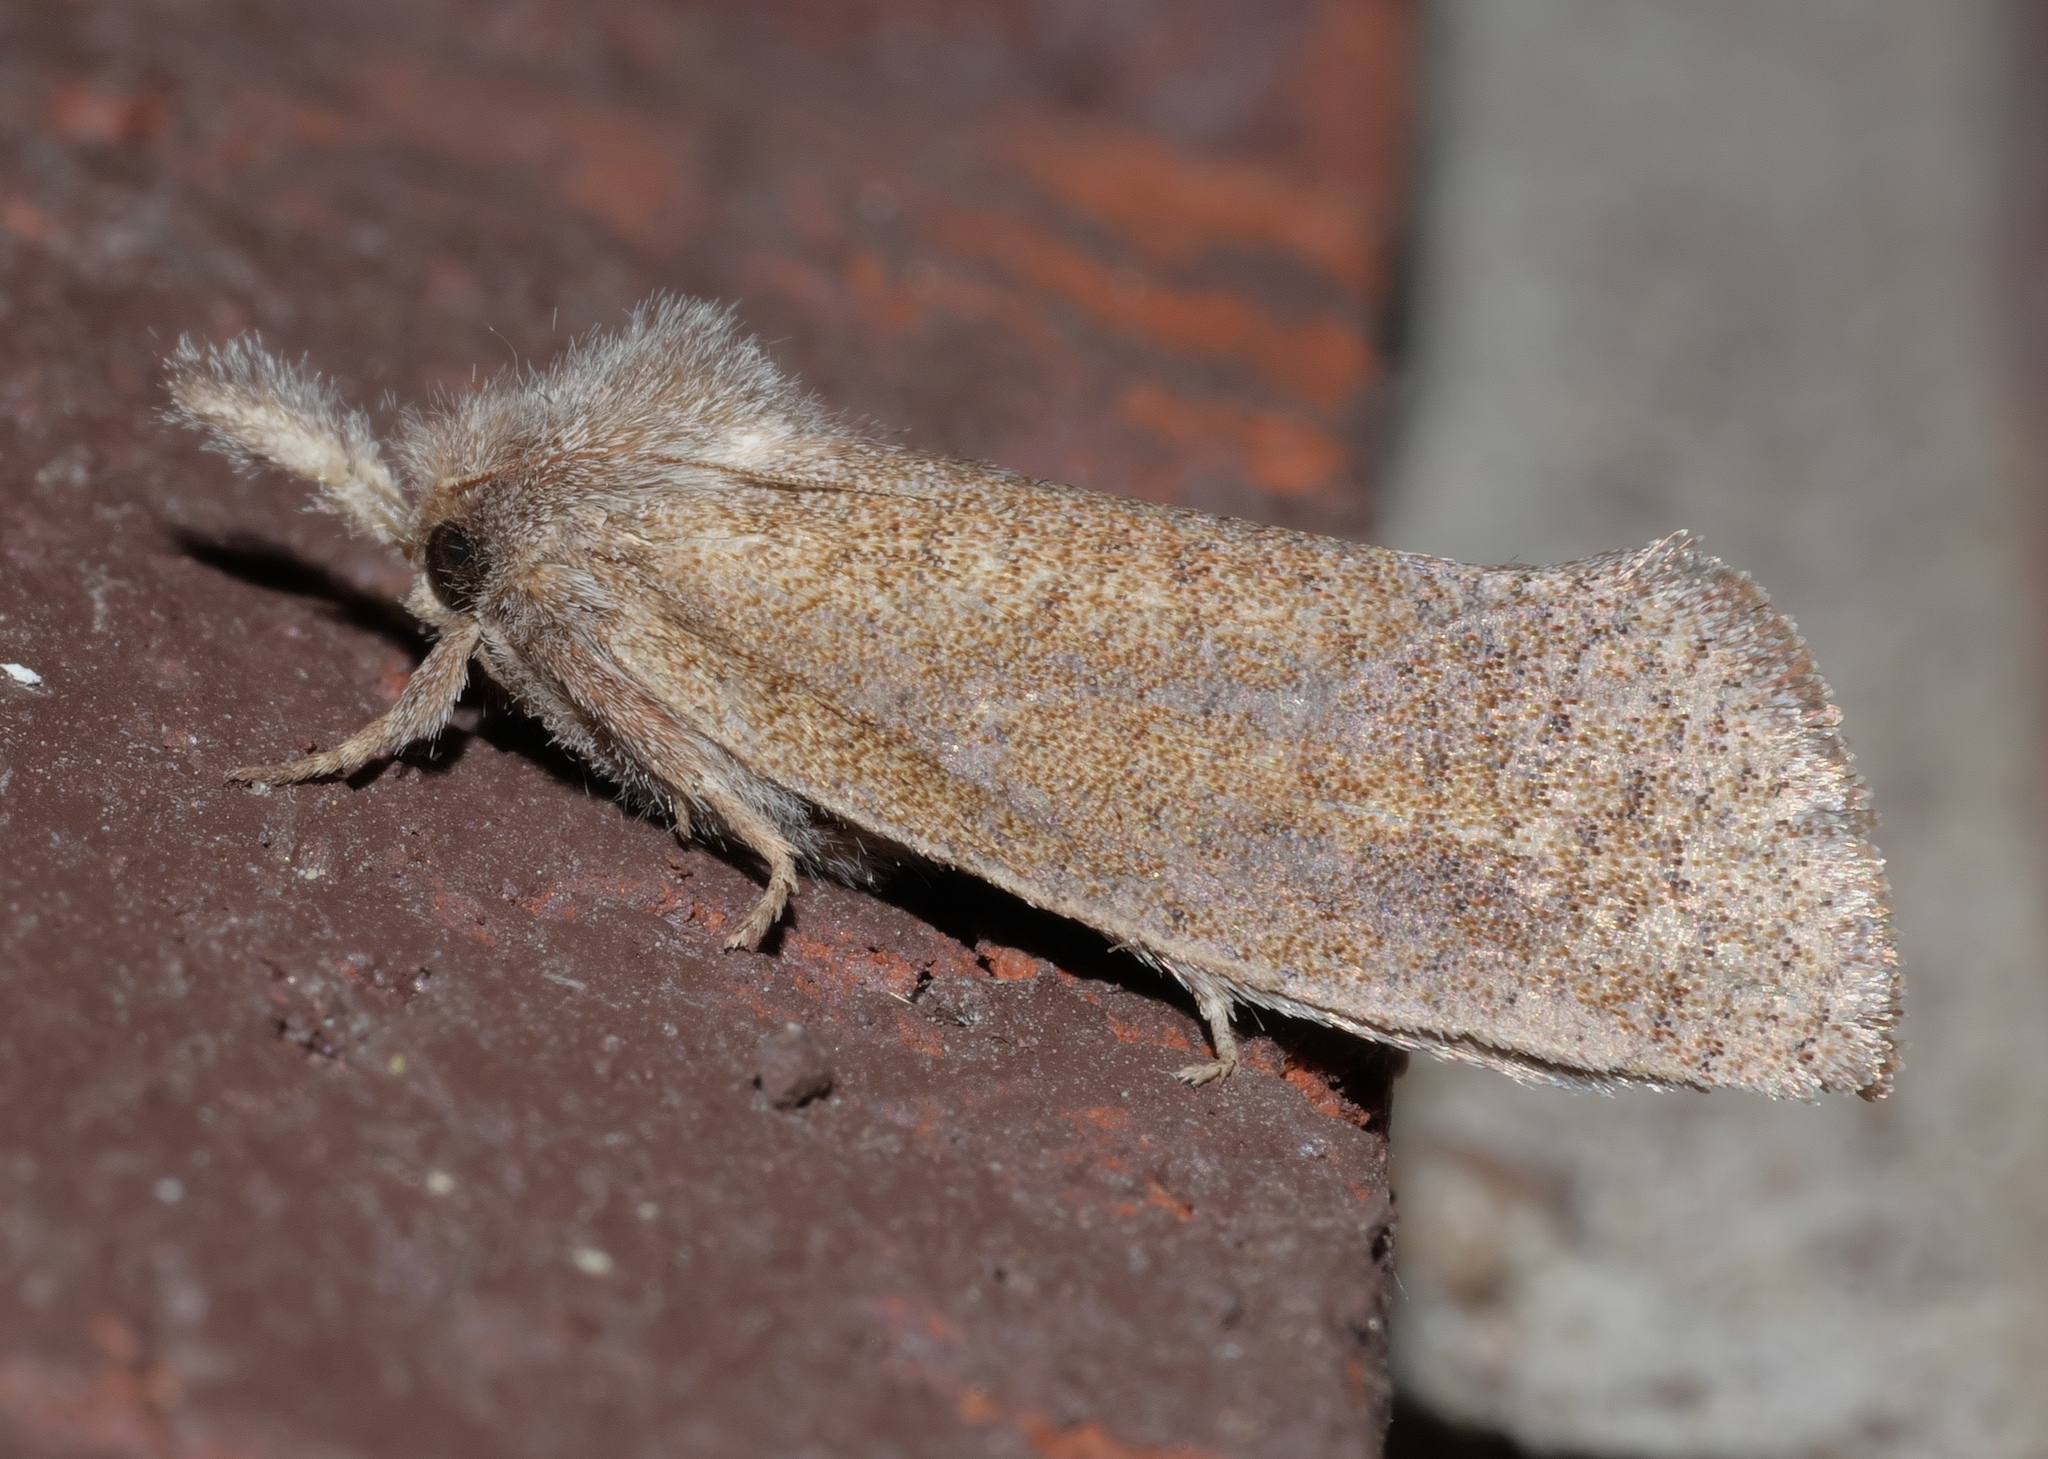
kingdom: Animalia
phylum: Arthropoda
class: Insecta
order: Lepidoptera
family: Tineidae
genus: Acrolophus
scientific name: Acrolophus plumifrontella
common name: Eastern grass tubeworm moth
